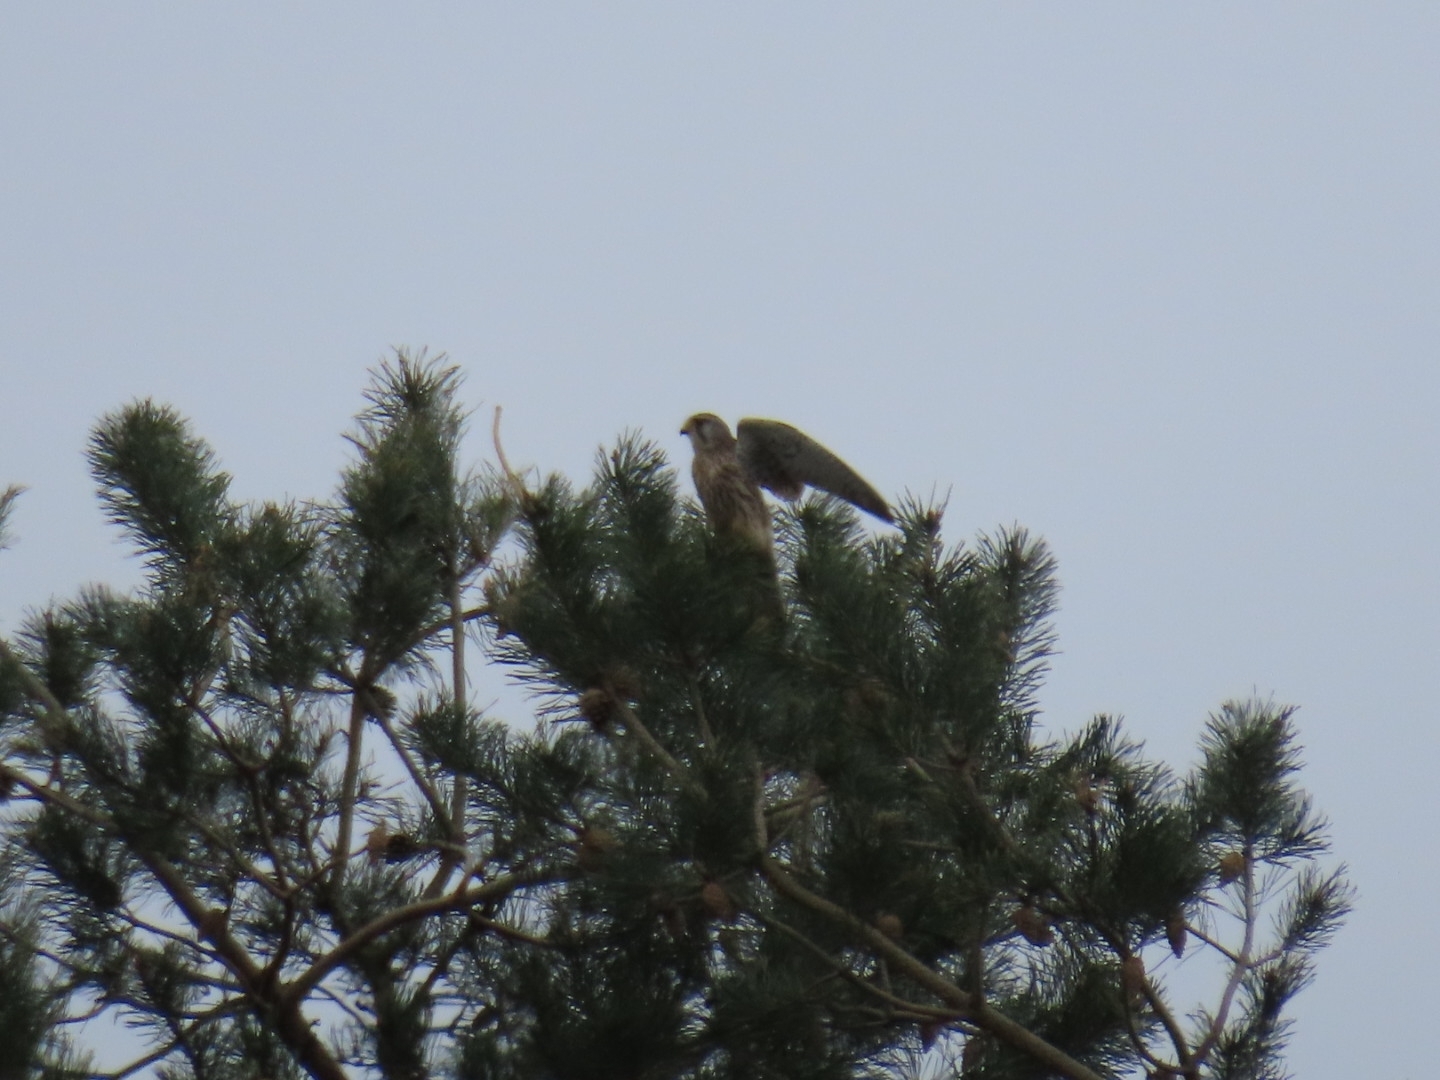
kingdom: Animalia
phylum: Chordata
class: Aves
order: Falconiformes
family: Falconidae
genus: Falco
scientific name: Falco tinnunculus
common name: Common kestrel
